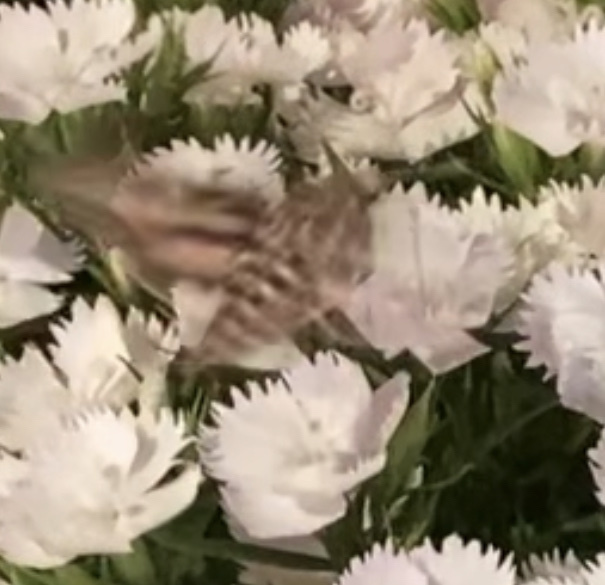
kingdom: Animalia
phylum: Arthropoda
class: Insecta
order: Lepidoptera
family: Sphingidae
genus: Hyles
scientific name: Hyles lineata
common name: White-lined sphinx
